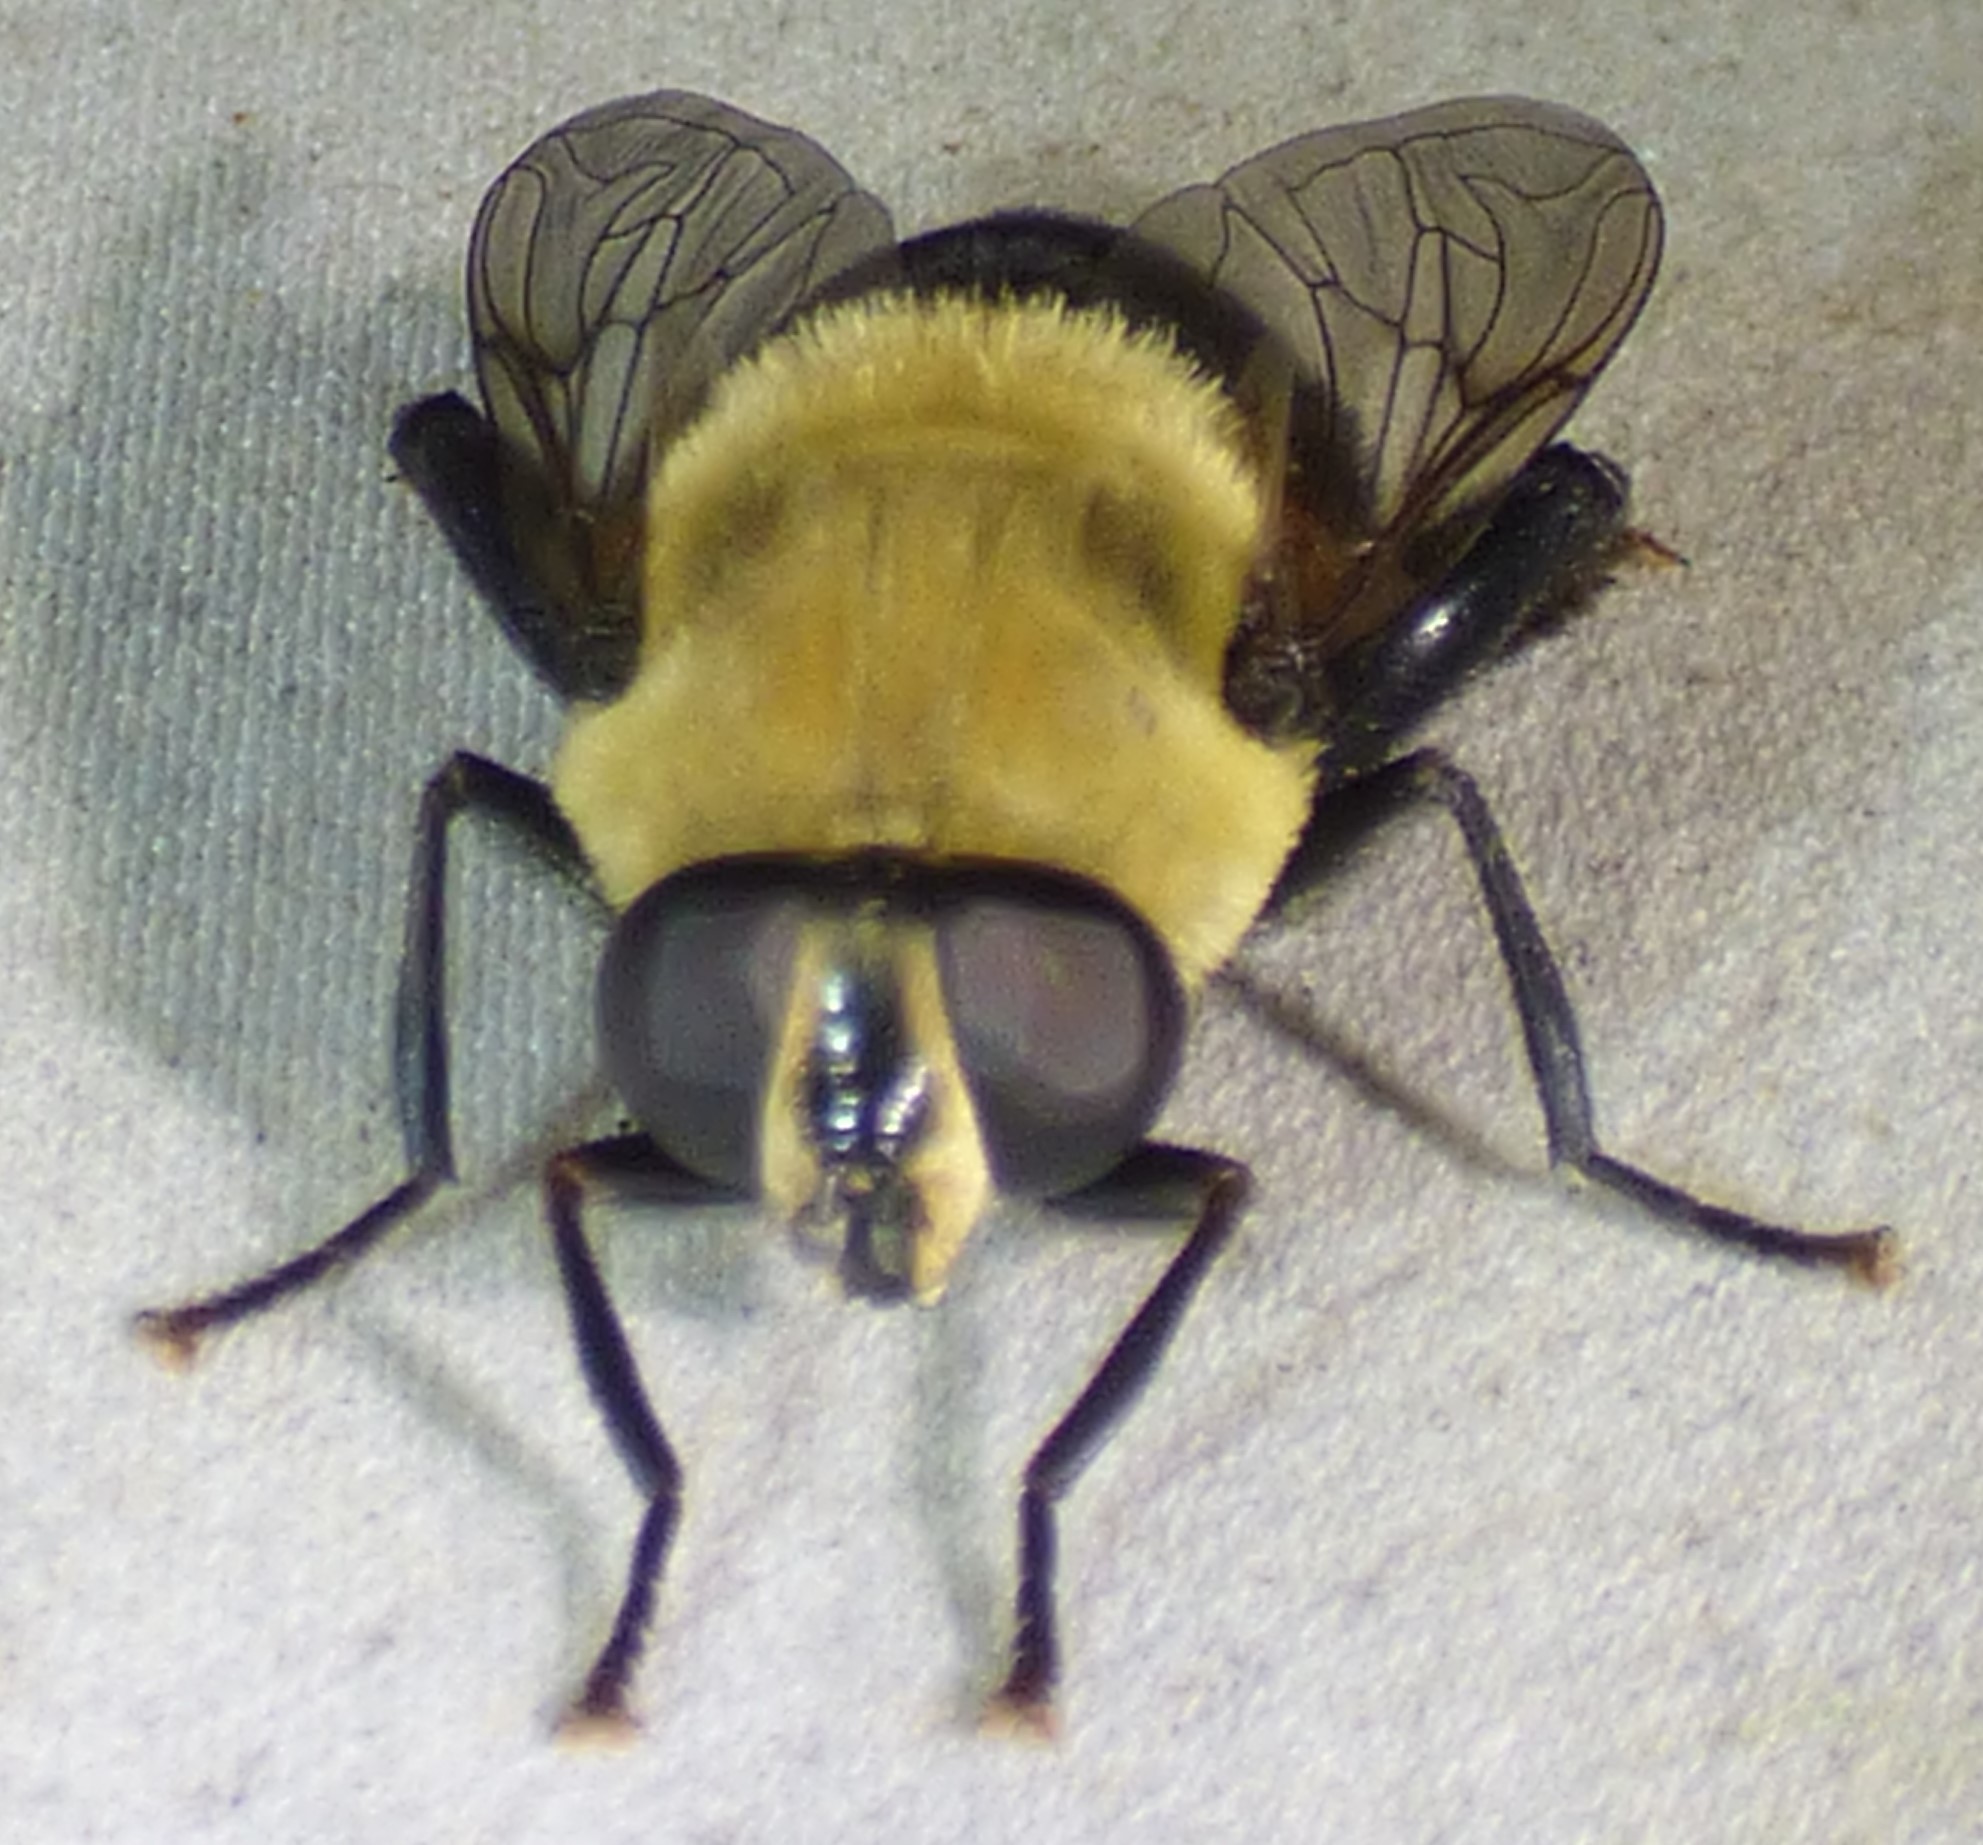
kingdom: Animalia
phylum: Arthropoda
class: Insecta
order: Diptera
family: Syrphidae
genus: Imatisma
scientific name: Imatisma bautias
